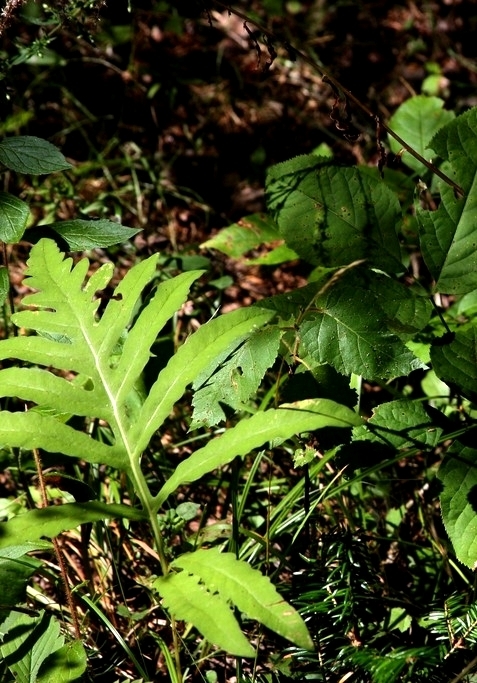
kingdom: Plantae
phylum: Tracheophyta
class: Polypodiopsida
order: Polypodiales
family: Onocleaceae
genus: Onoclea
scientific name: Onoclea sensibilis
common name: Sensitive fern
